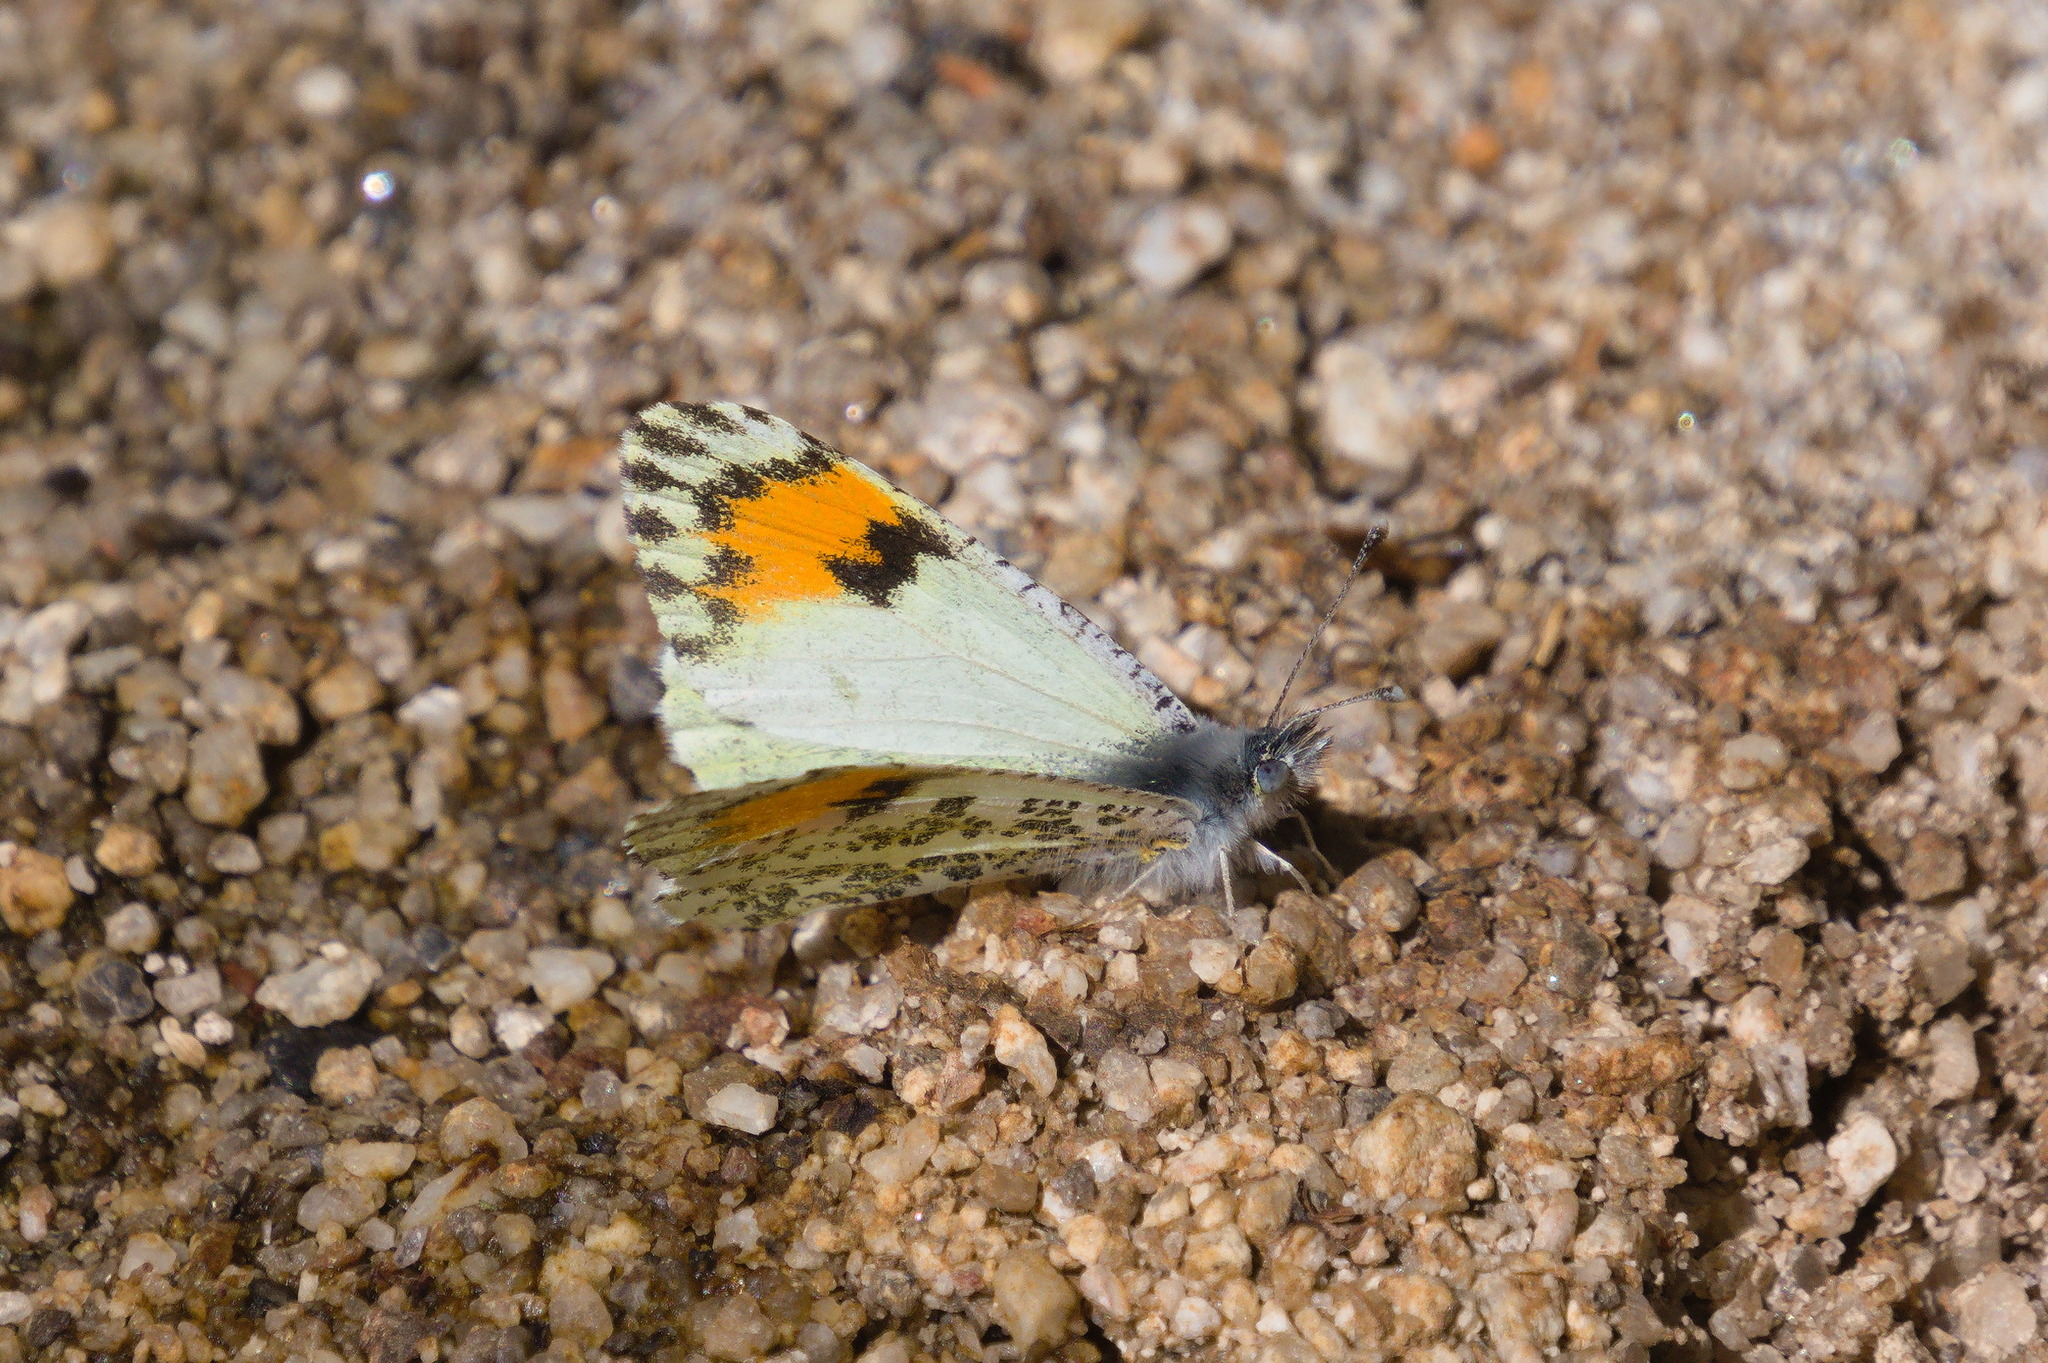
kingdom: Animalia
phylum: Arthropoda
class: Insecta
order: Lepidoptera
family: Pieridae
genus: Anthocharis
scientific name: Anthocharis thoosa
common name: Southwestern orangetip
